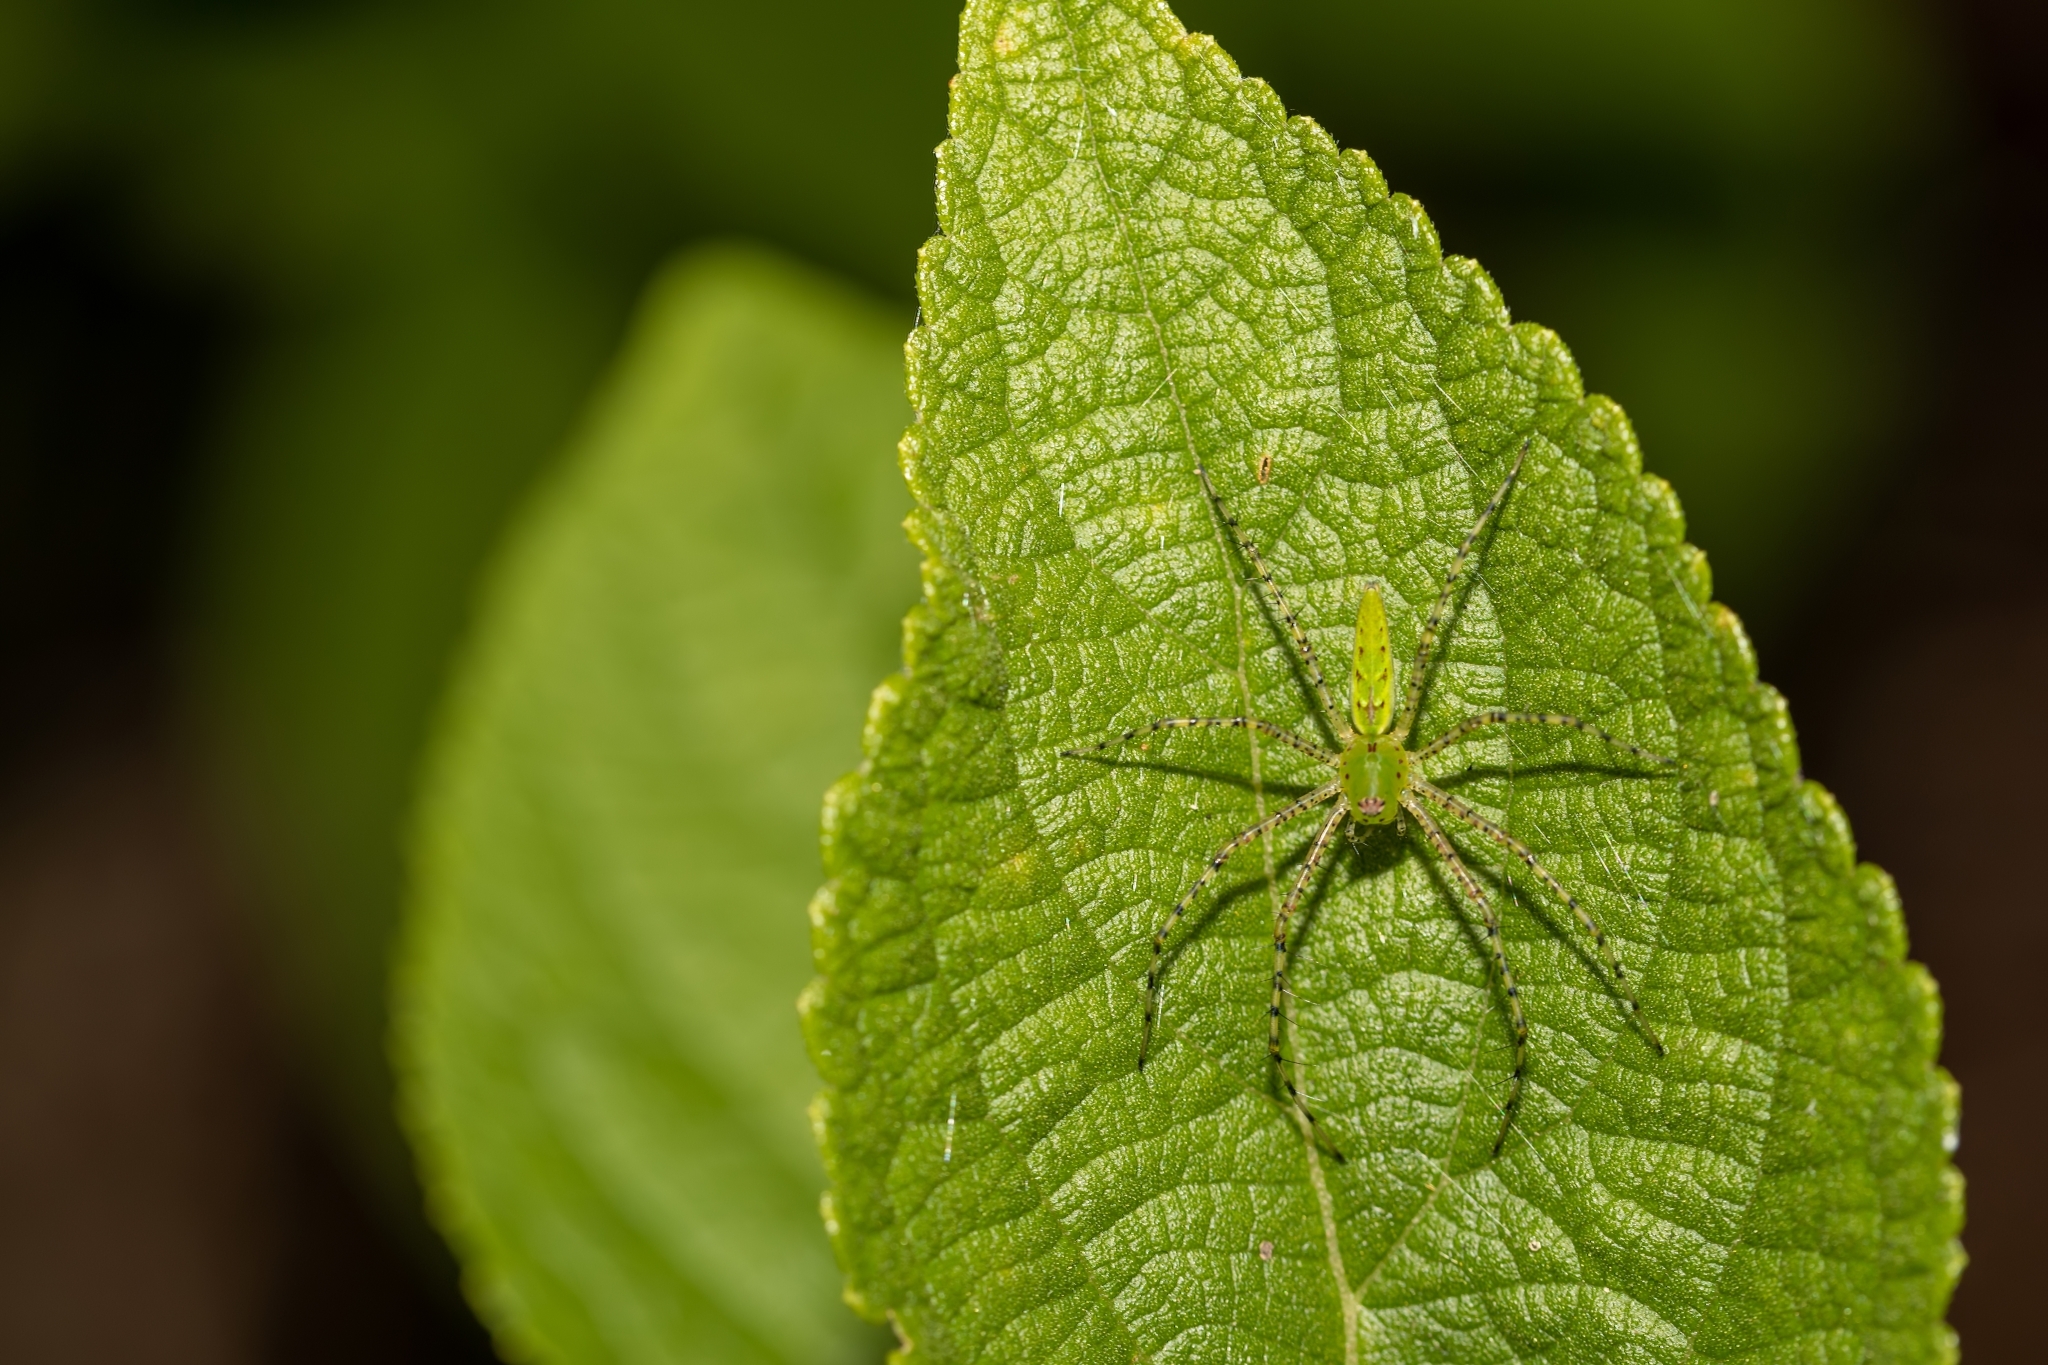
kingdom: Animalia
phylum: Arthropoda
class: Arachnida
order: Araneae
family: Oxyopidae
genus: Peucetia
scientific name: Peucetia viridans
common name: Lynx spiders
